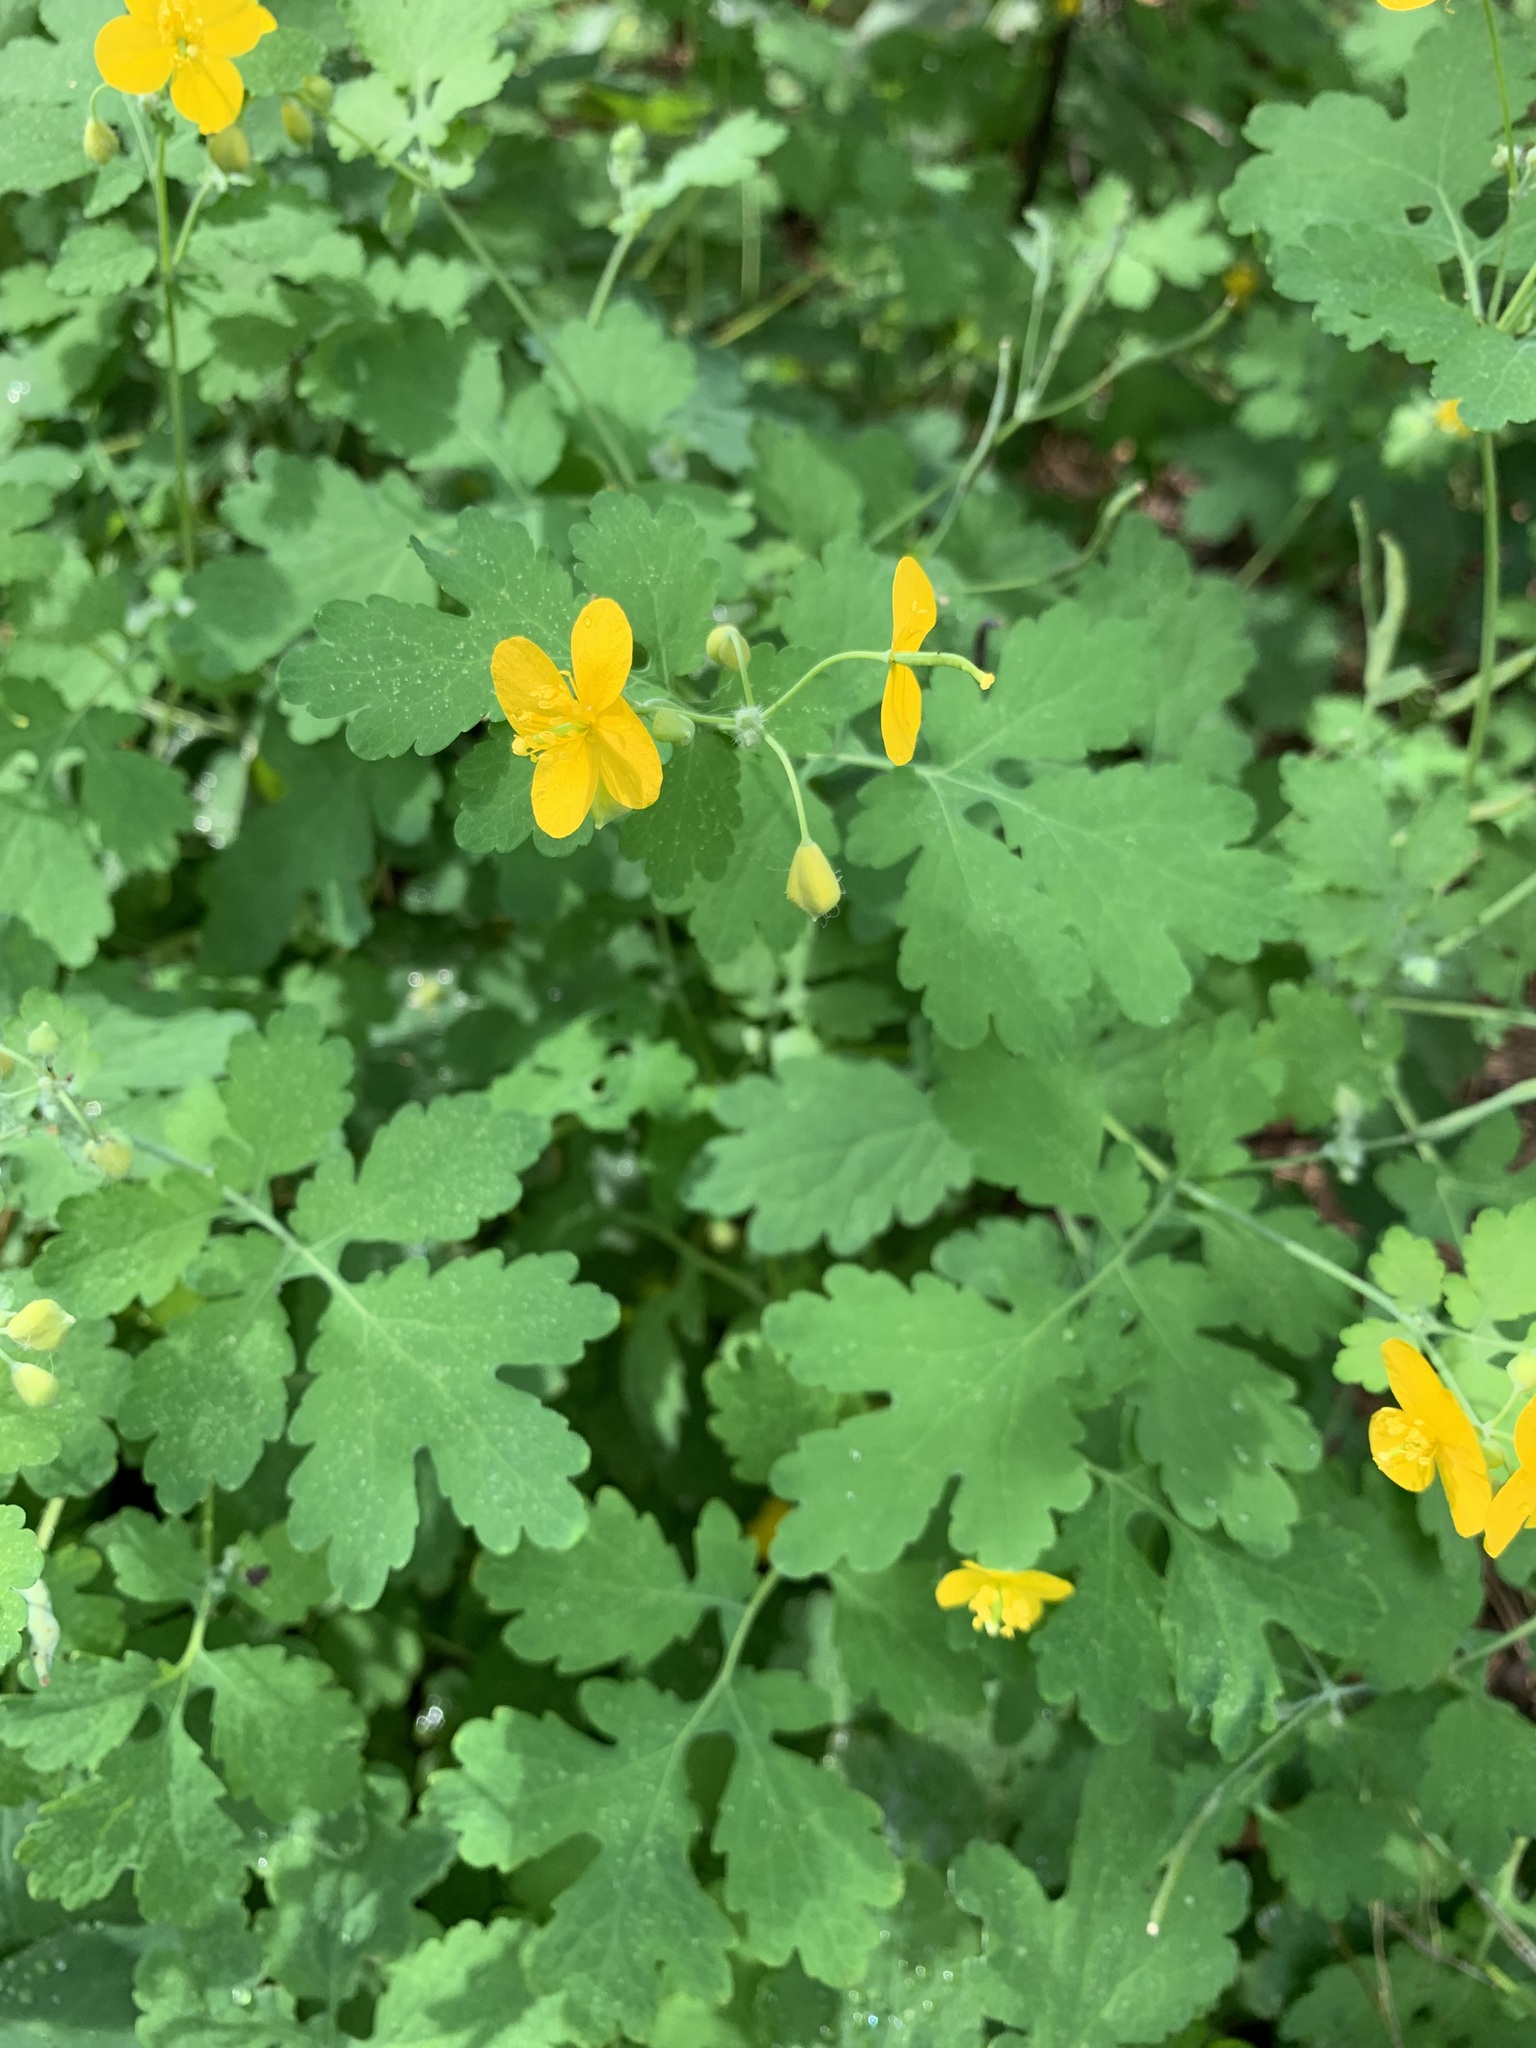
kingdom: Plantae
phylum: Tracheophyta
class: Magnoliopsida
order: Ranunculales
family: Papaveraceae
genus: Chelidonium
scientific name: Chelidonium majus
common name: Greater celandine
